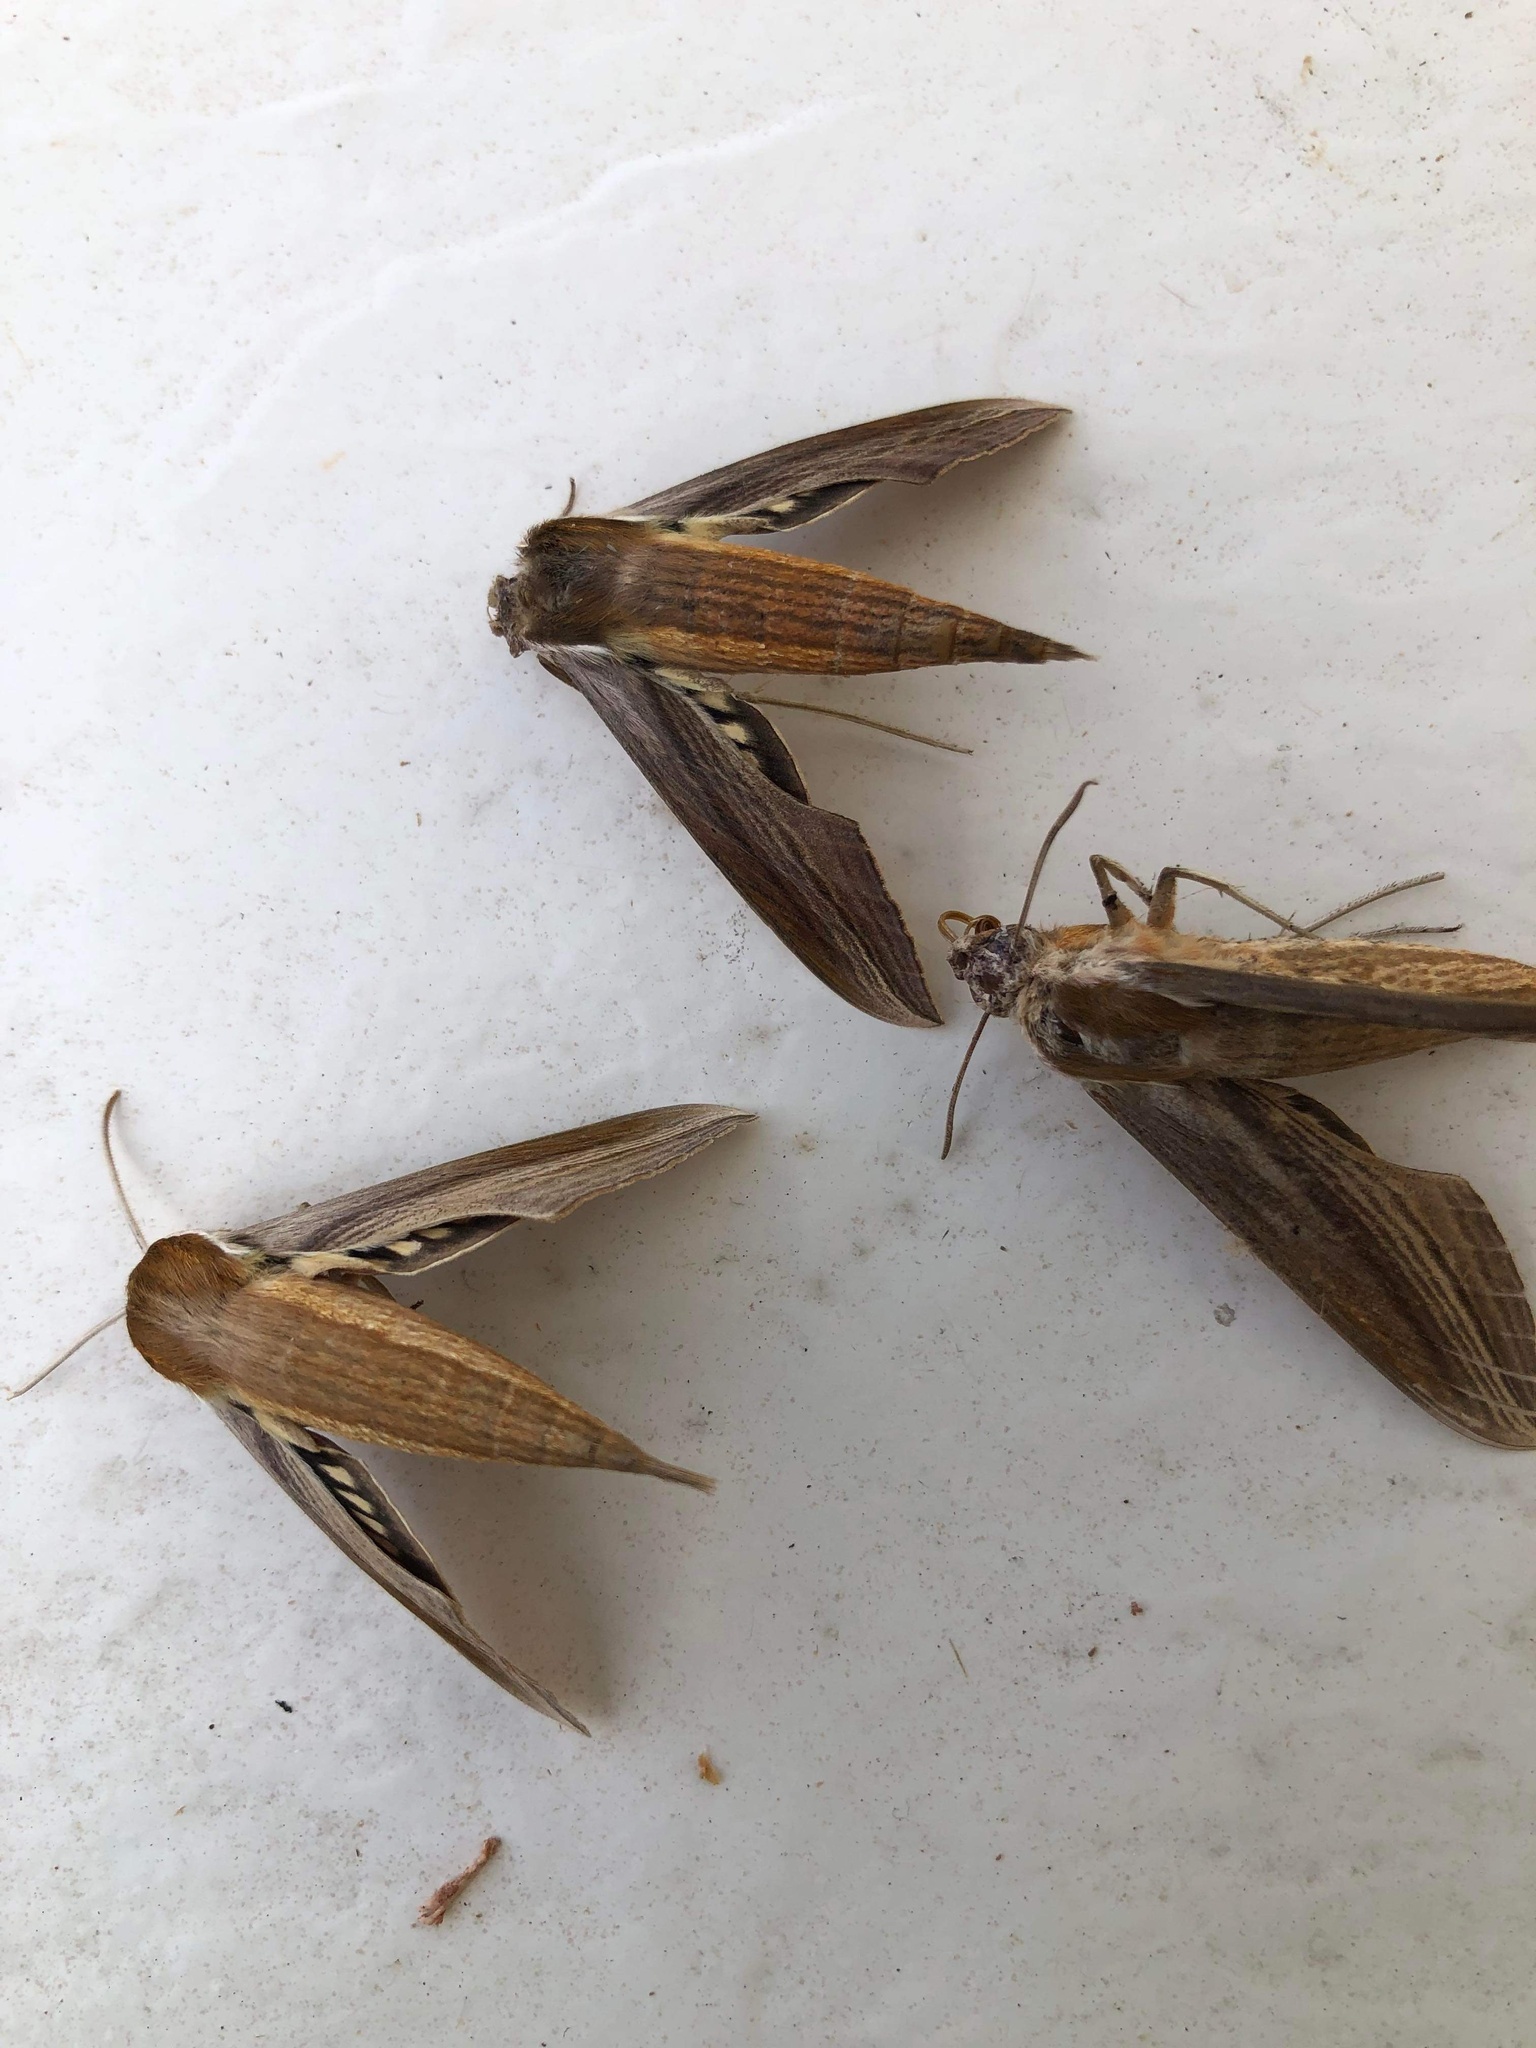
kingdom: Animalia
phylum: Arthropoda
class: Insecta
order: Lepidoptera
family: Sphingidae
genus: Xylophanes
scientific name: Xylophanes tersa
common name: Tersa sphinx
